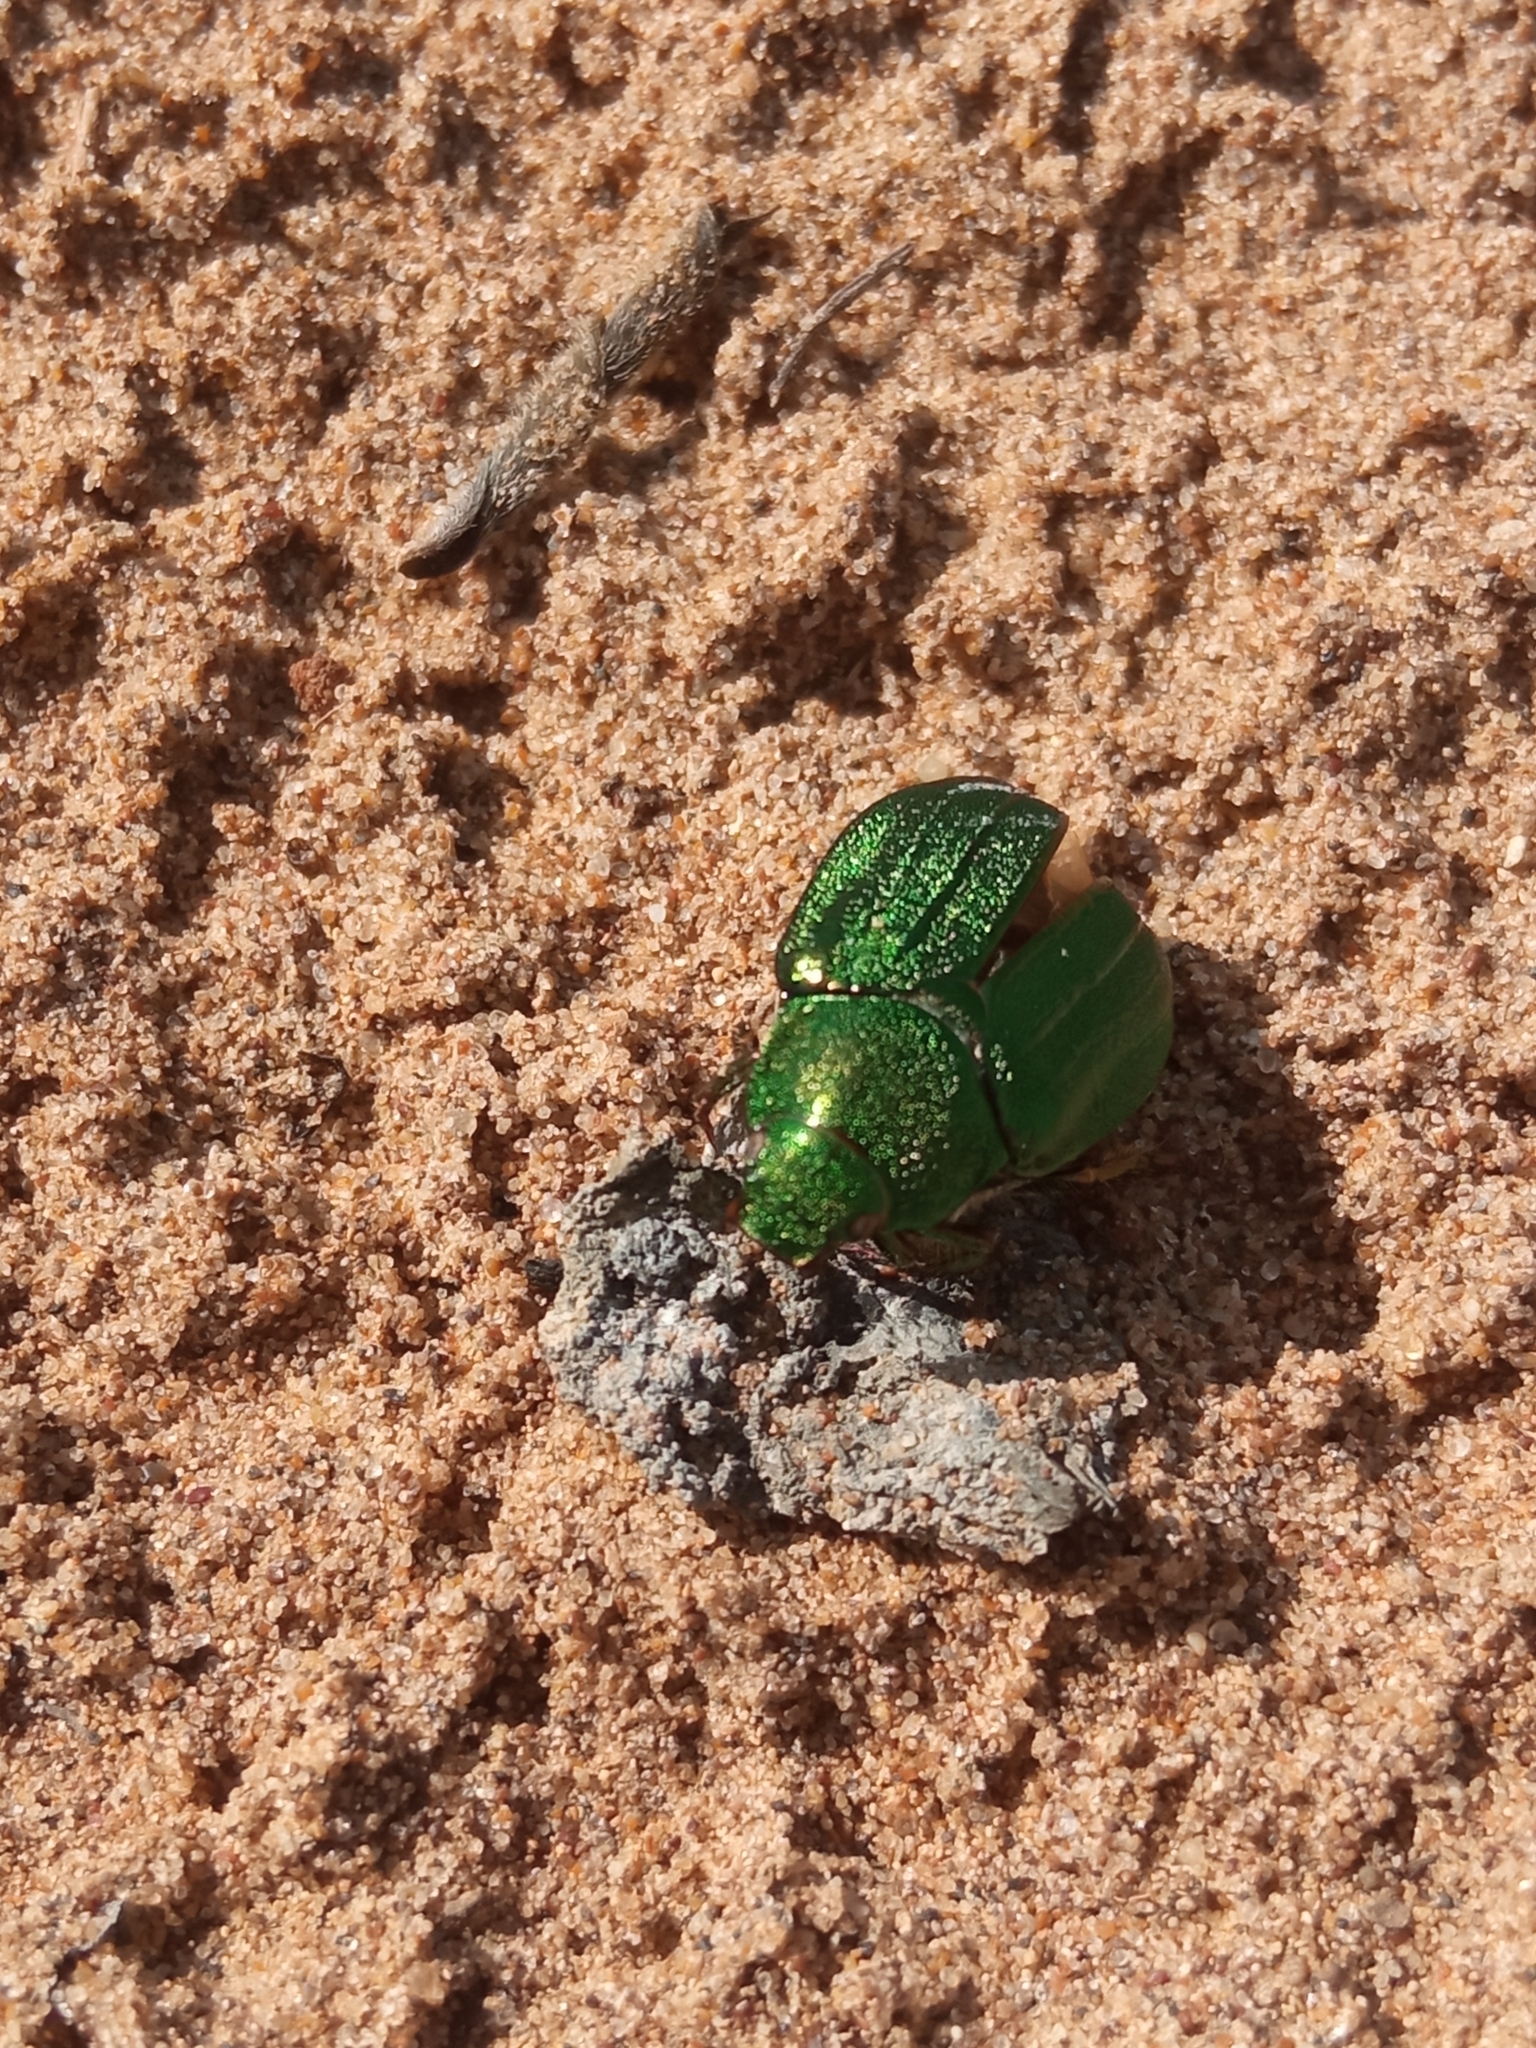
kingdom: Animalia
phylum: Arthropoda
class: Insecta
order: Coleoptera
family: Scarabaeidae
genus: Mimela
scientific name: Mimela holosericea
